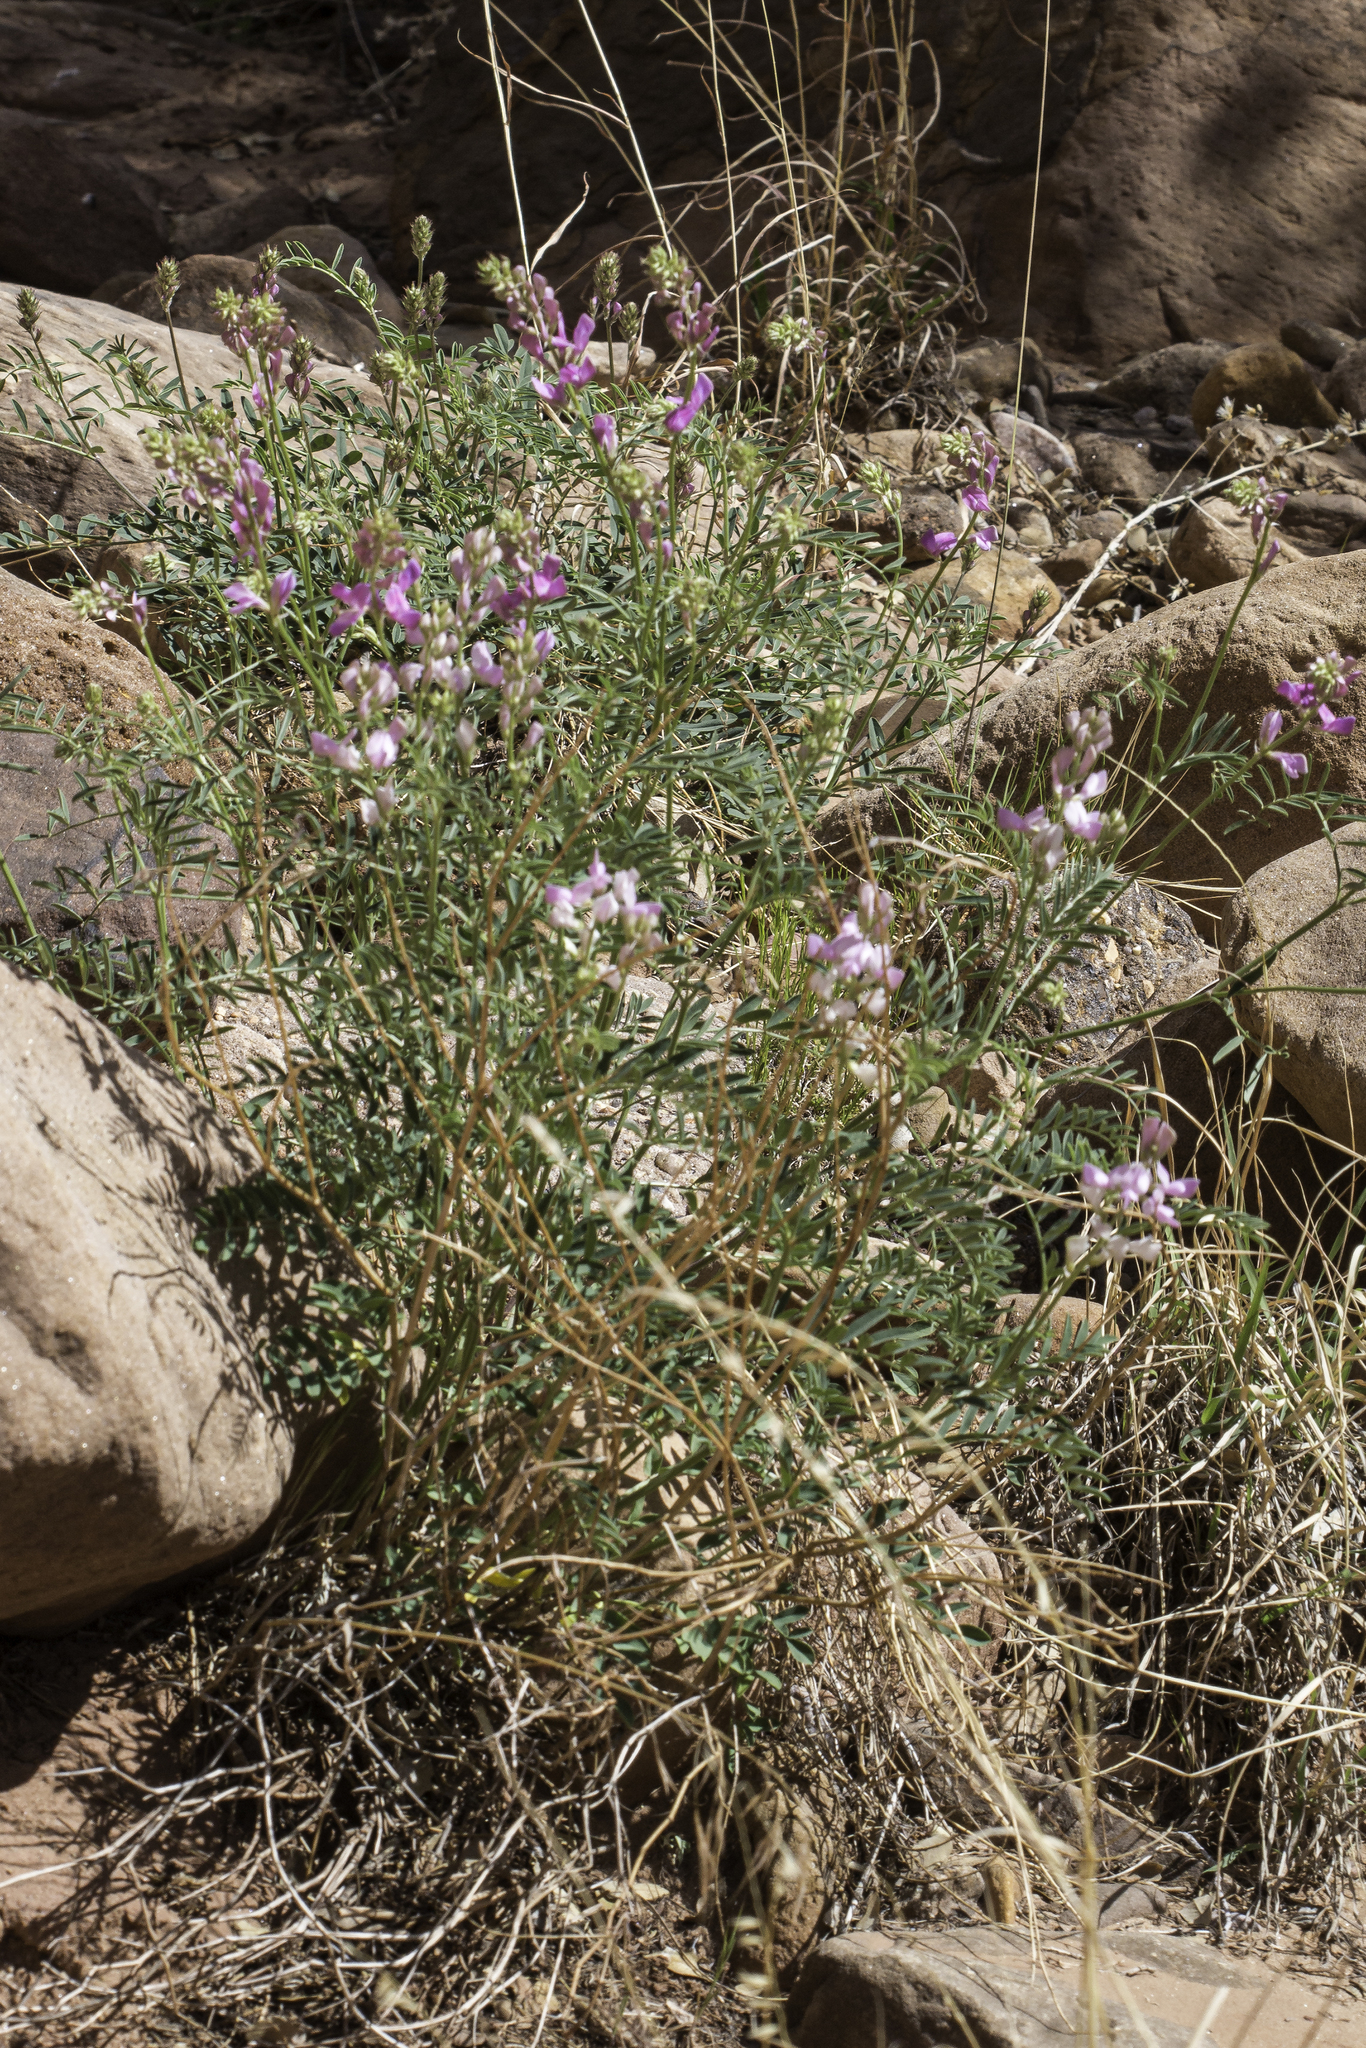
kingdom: Plantae
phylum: Tracheophyta
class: Magnoliopsida
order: Fabales
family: Fabaceae
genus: Hedysarum
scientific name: Hedysarum boreale
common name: Northern sweet-vetch
